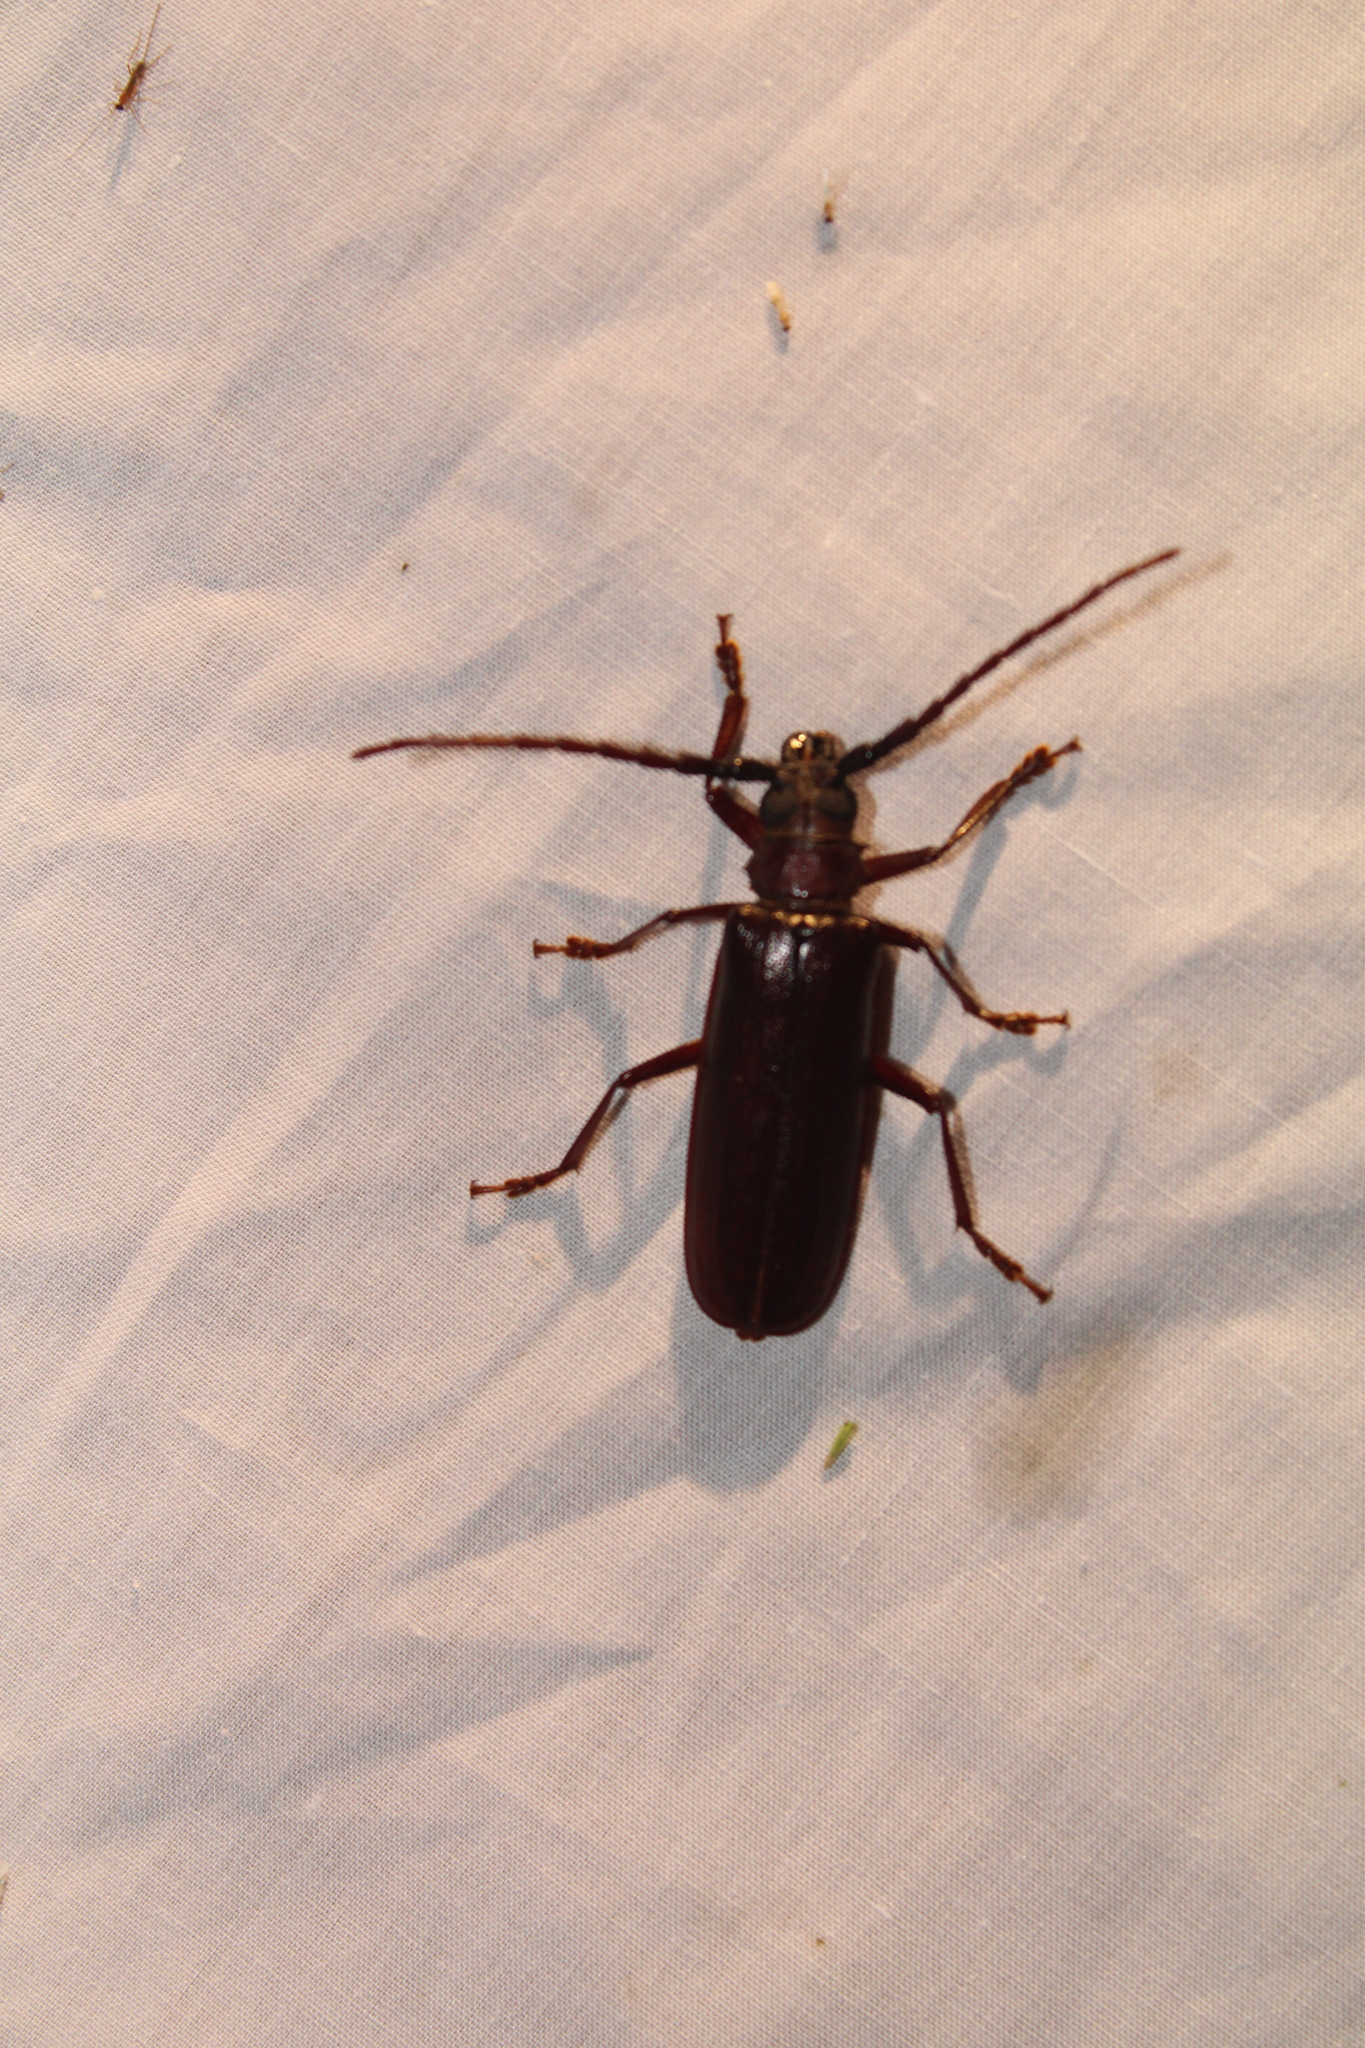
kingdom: Animalia
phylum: Arthropoda
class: Insecta
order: Coleoptera
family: Cerambycidae
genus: Orthosoma
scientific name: Orthosoma brunneum
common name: Brown prionid beetle
